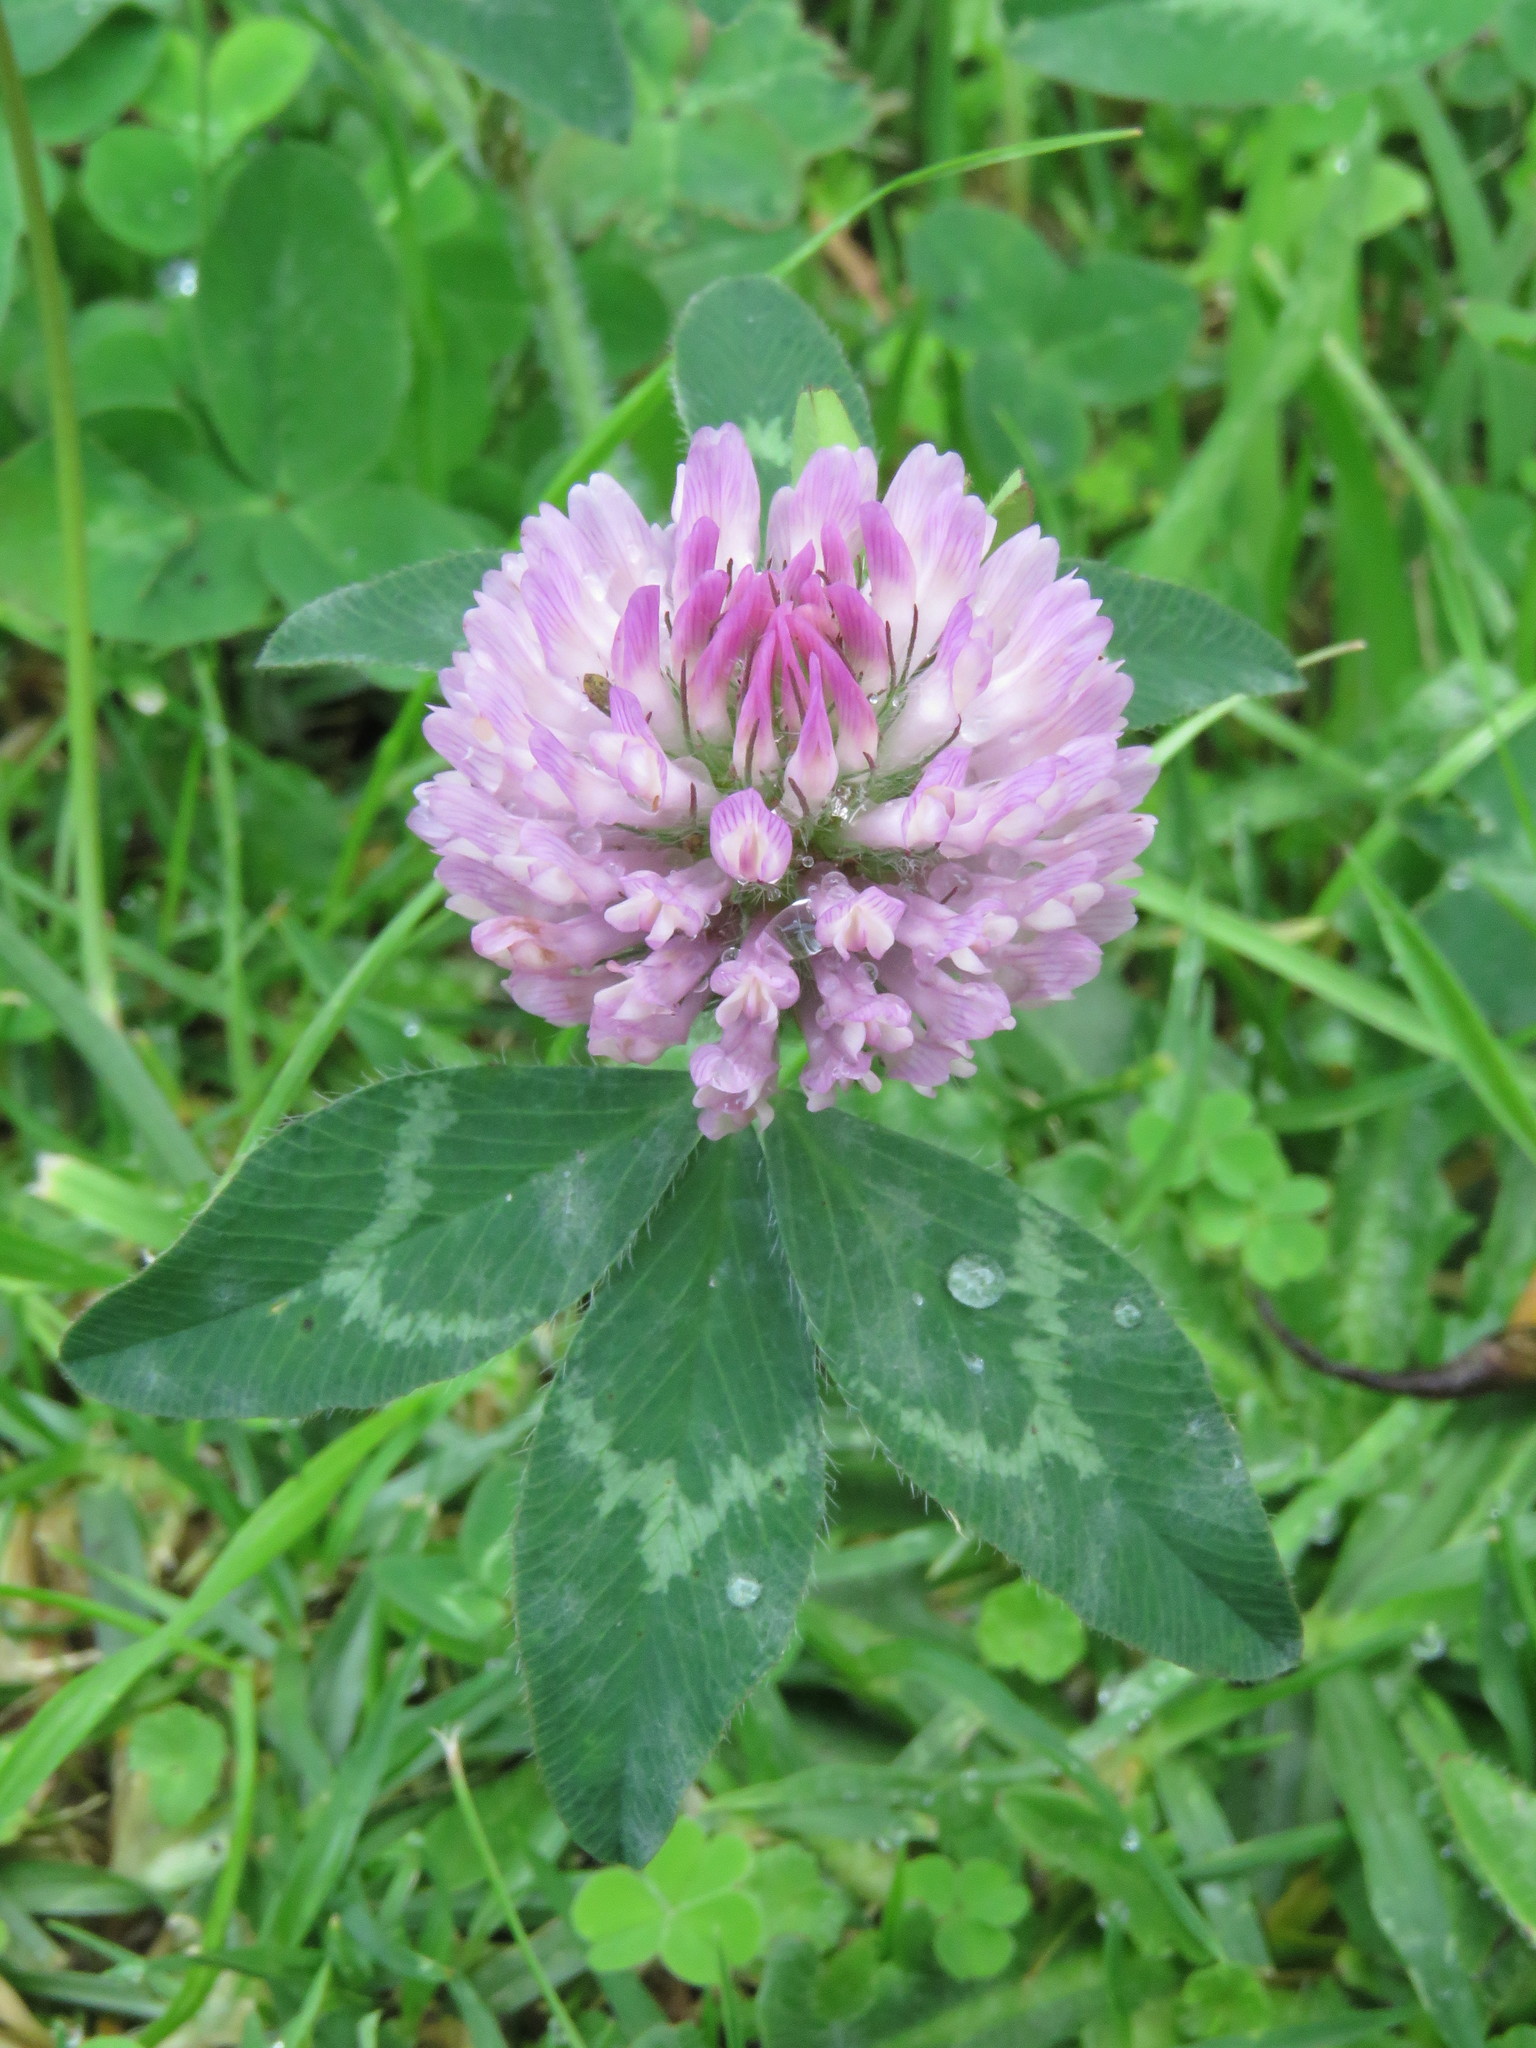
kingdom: Plantae
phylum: Tracheophyta
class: Magnoliopsida
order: Fabales
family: Fabaceae
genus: Trifolium
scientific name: Trifolium pratense
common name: Red clover
